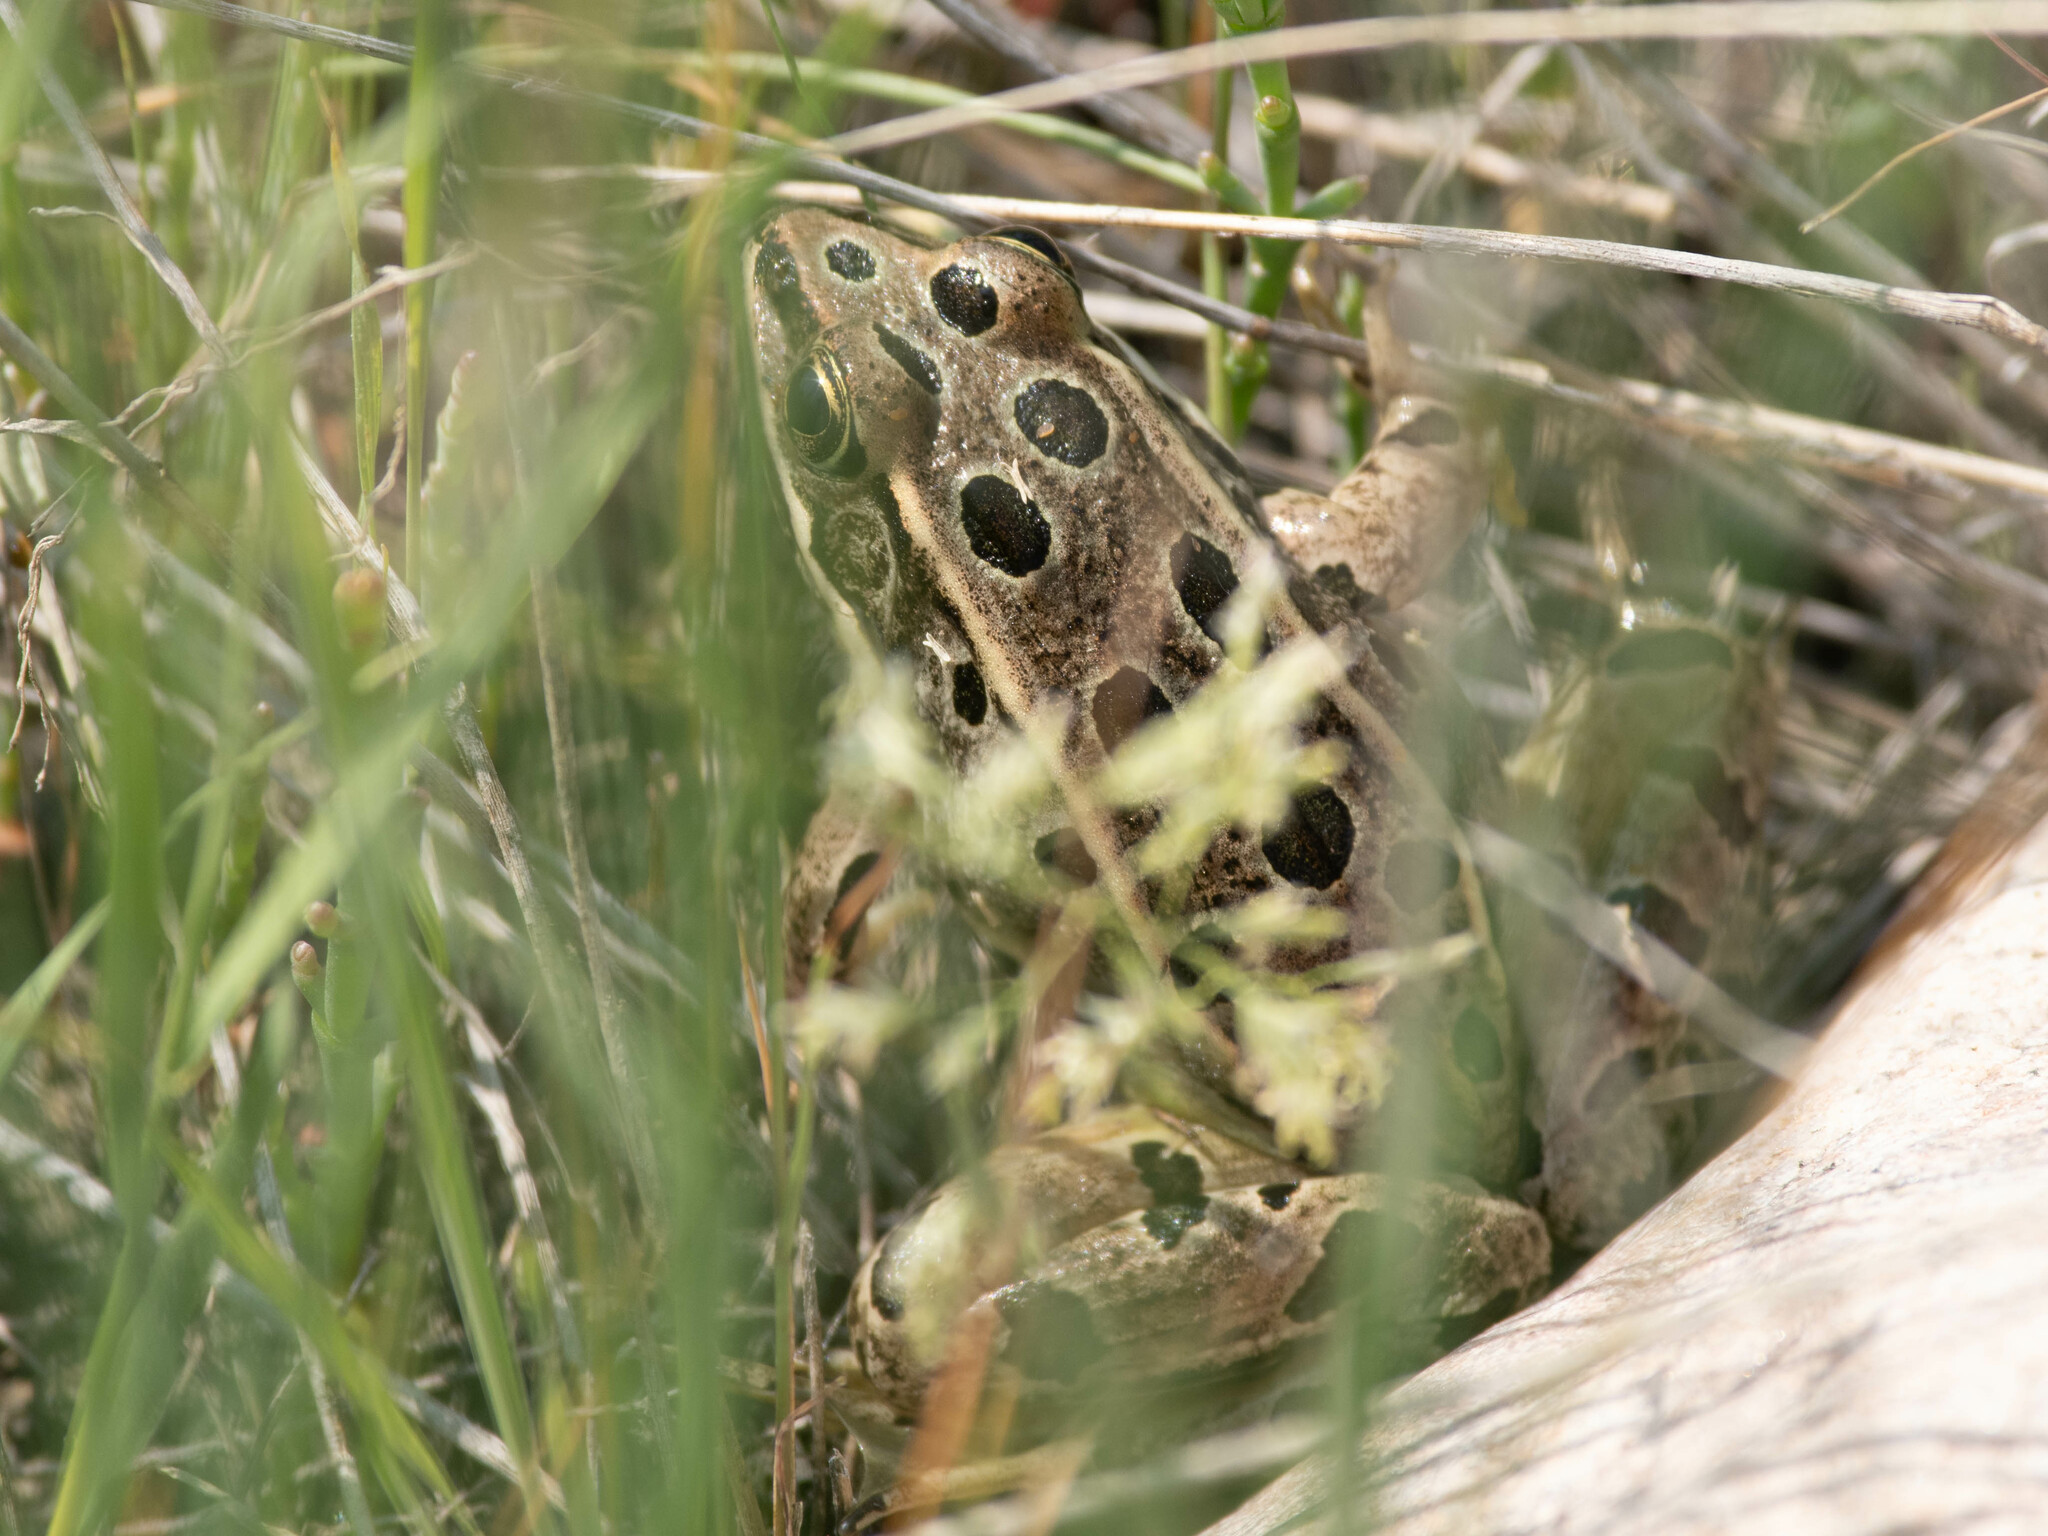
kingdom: Animalia
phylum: Chordata
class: Amphibia
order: Anura
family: Ranidae
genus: Lithobates
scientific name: Lithobates pipiens
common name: Northern leopard frog
